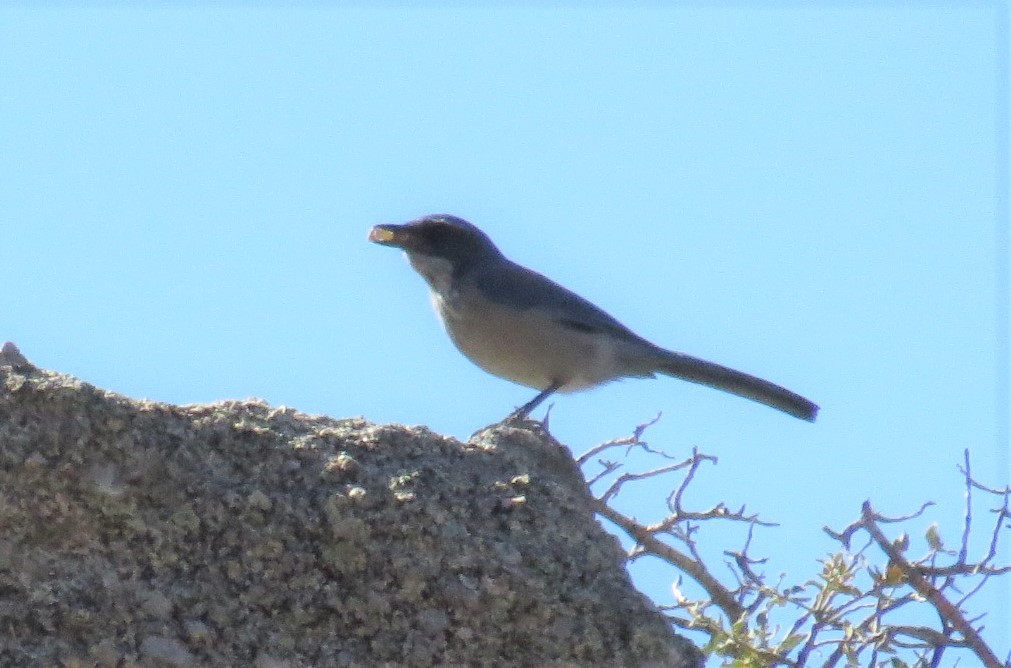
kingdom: Animalia
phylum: Chordata
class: Aves
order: Passeriformes
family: Corvidae
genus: Aphelocoma
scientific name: Aphelocoma woodhouseii
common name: Woodhouse's scrub-jay
